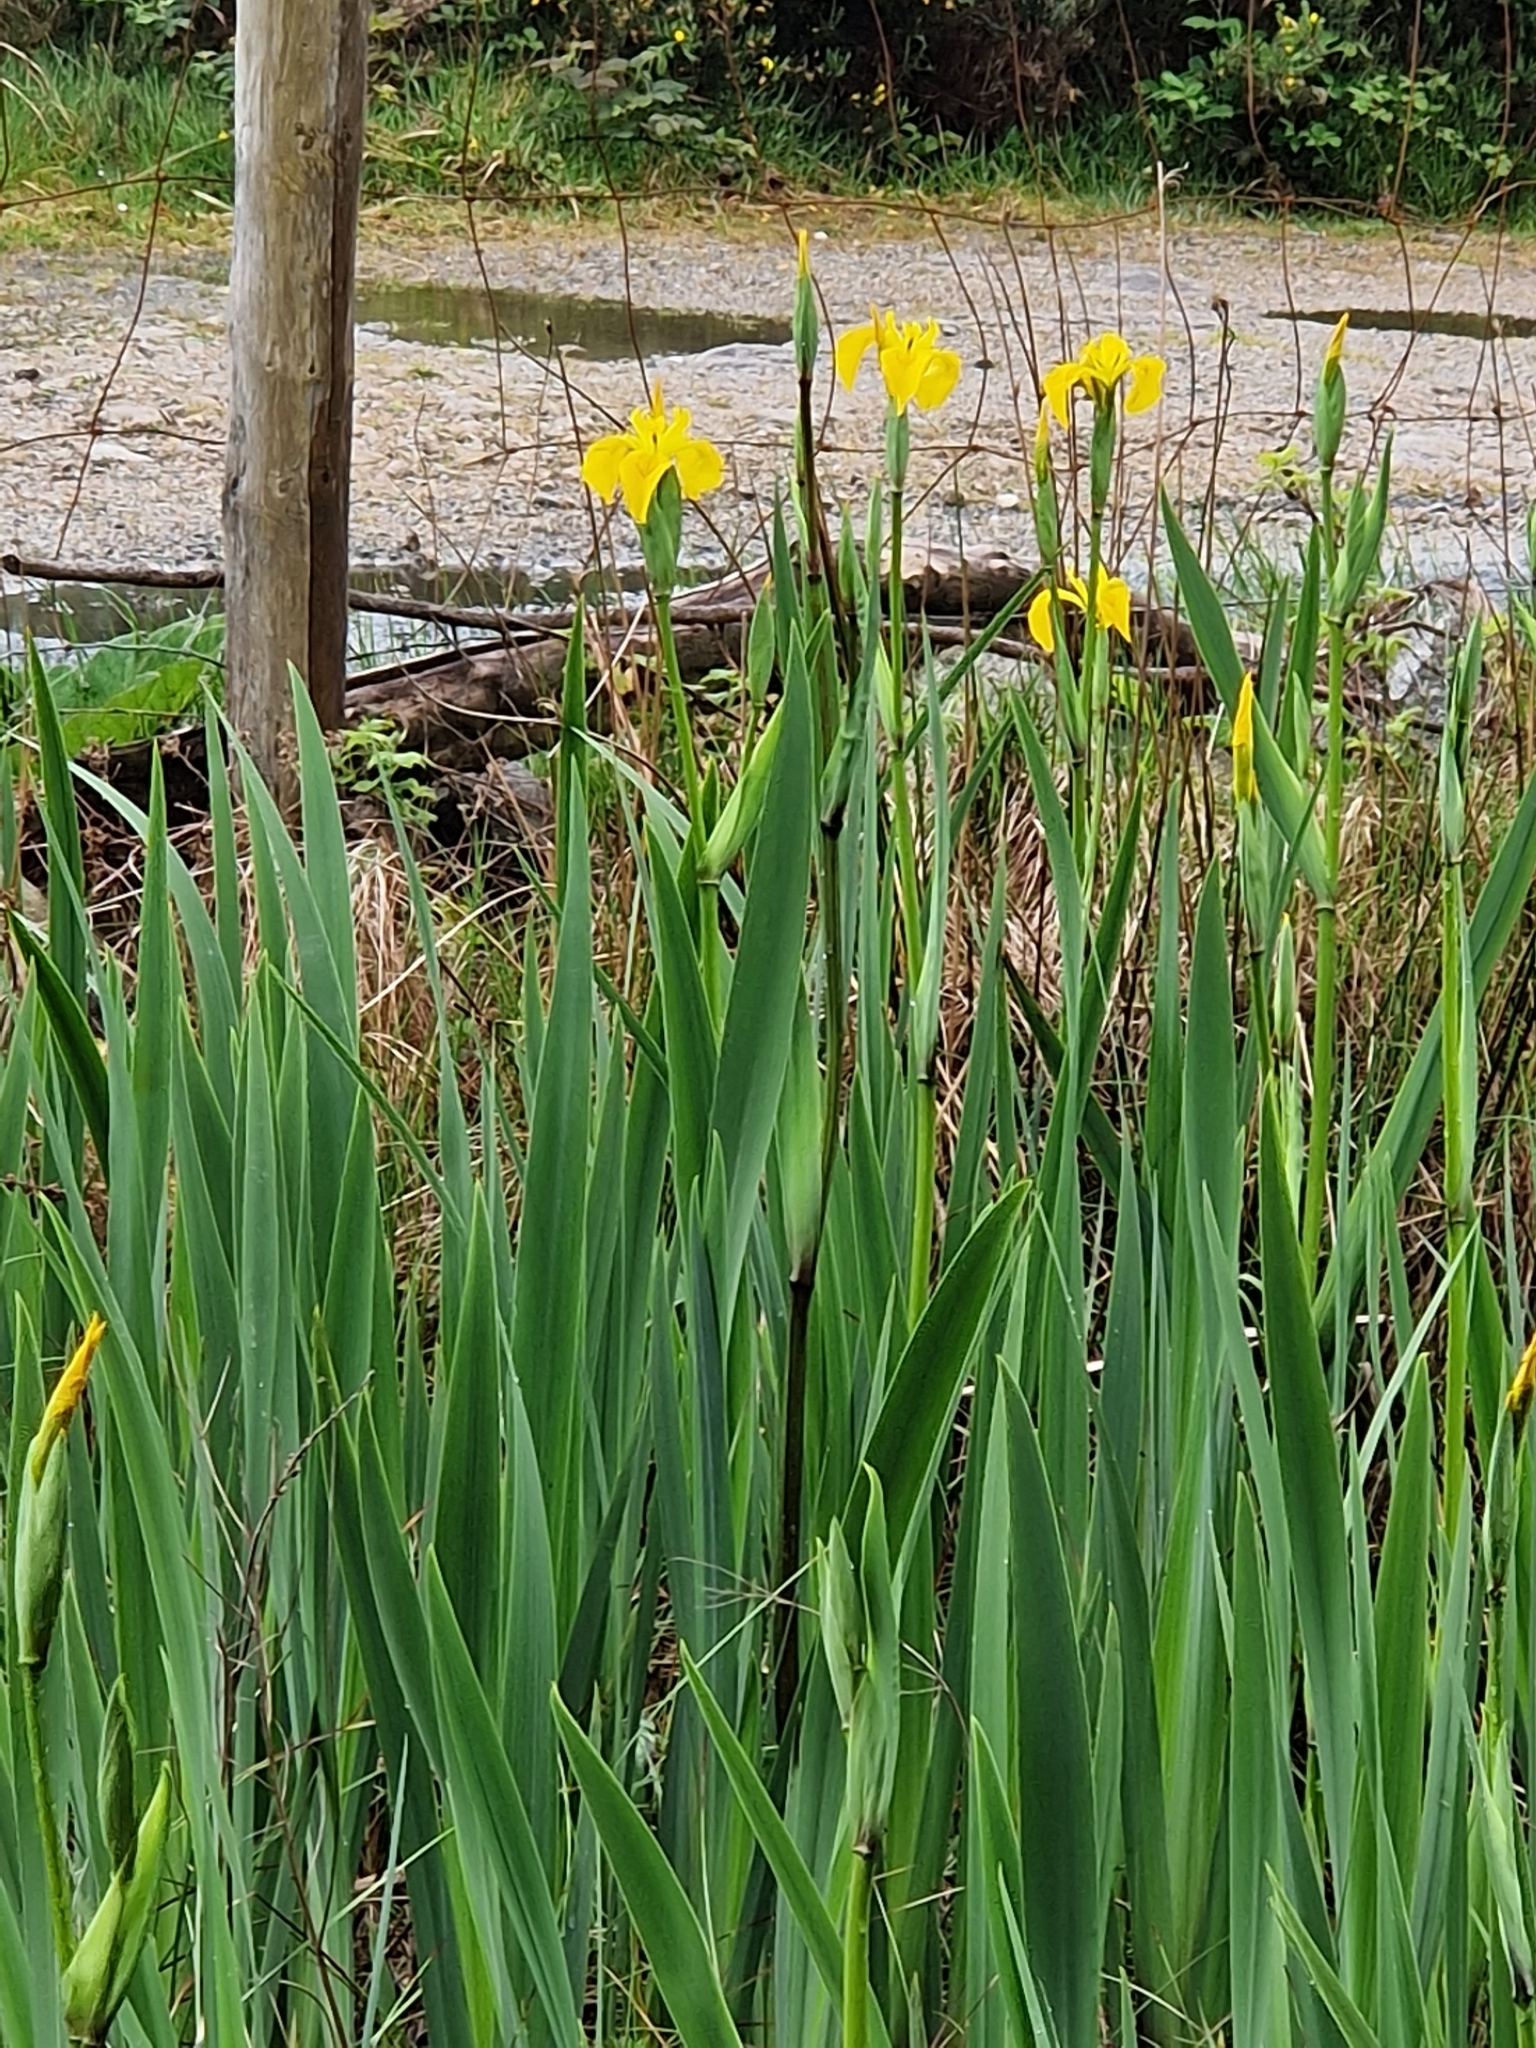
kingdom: Plantae
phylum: Tracheophyta
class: Liliopsida
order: Asparagales
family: Iridaceae
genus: Iris
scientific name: Iris pseudacorus
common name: Yellow flag
